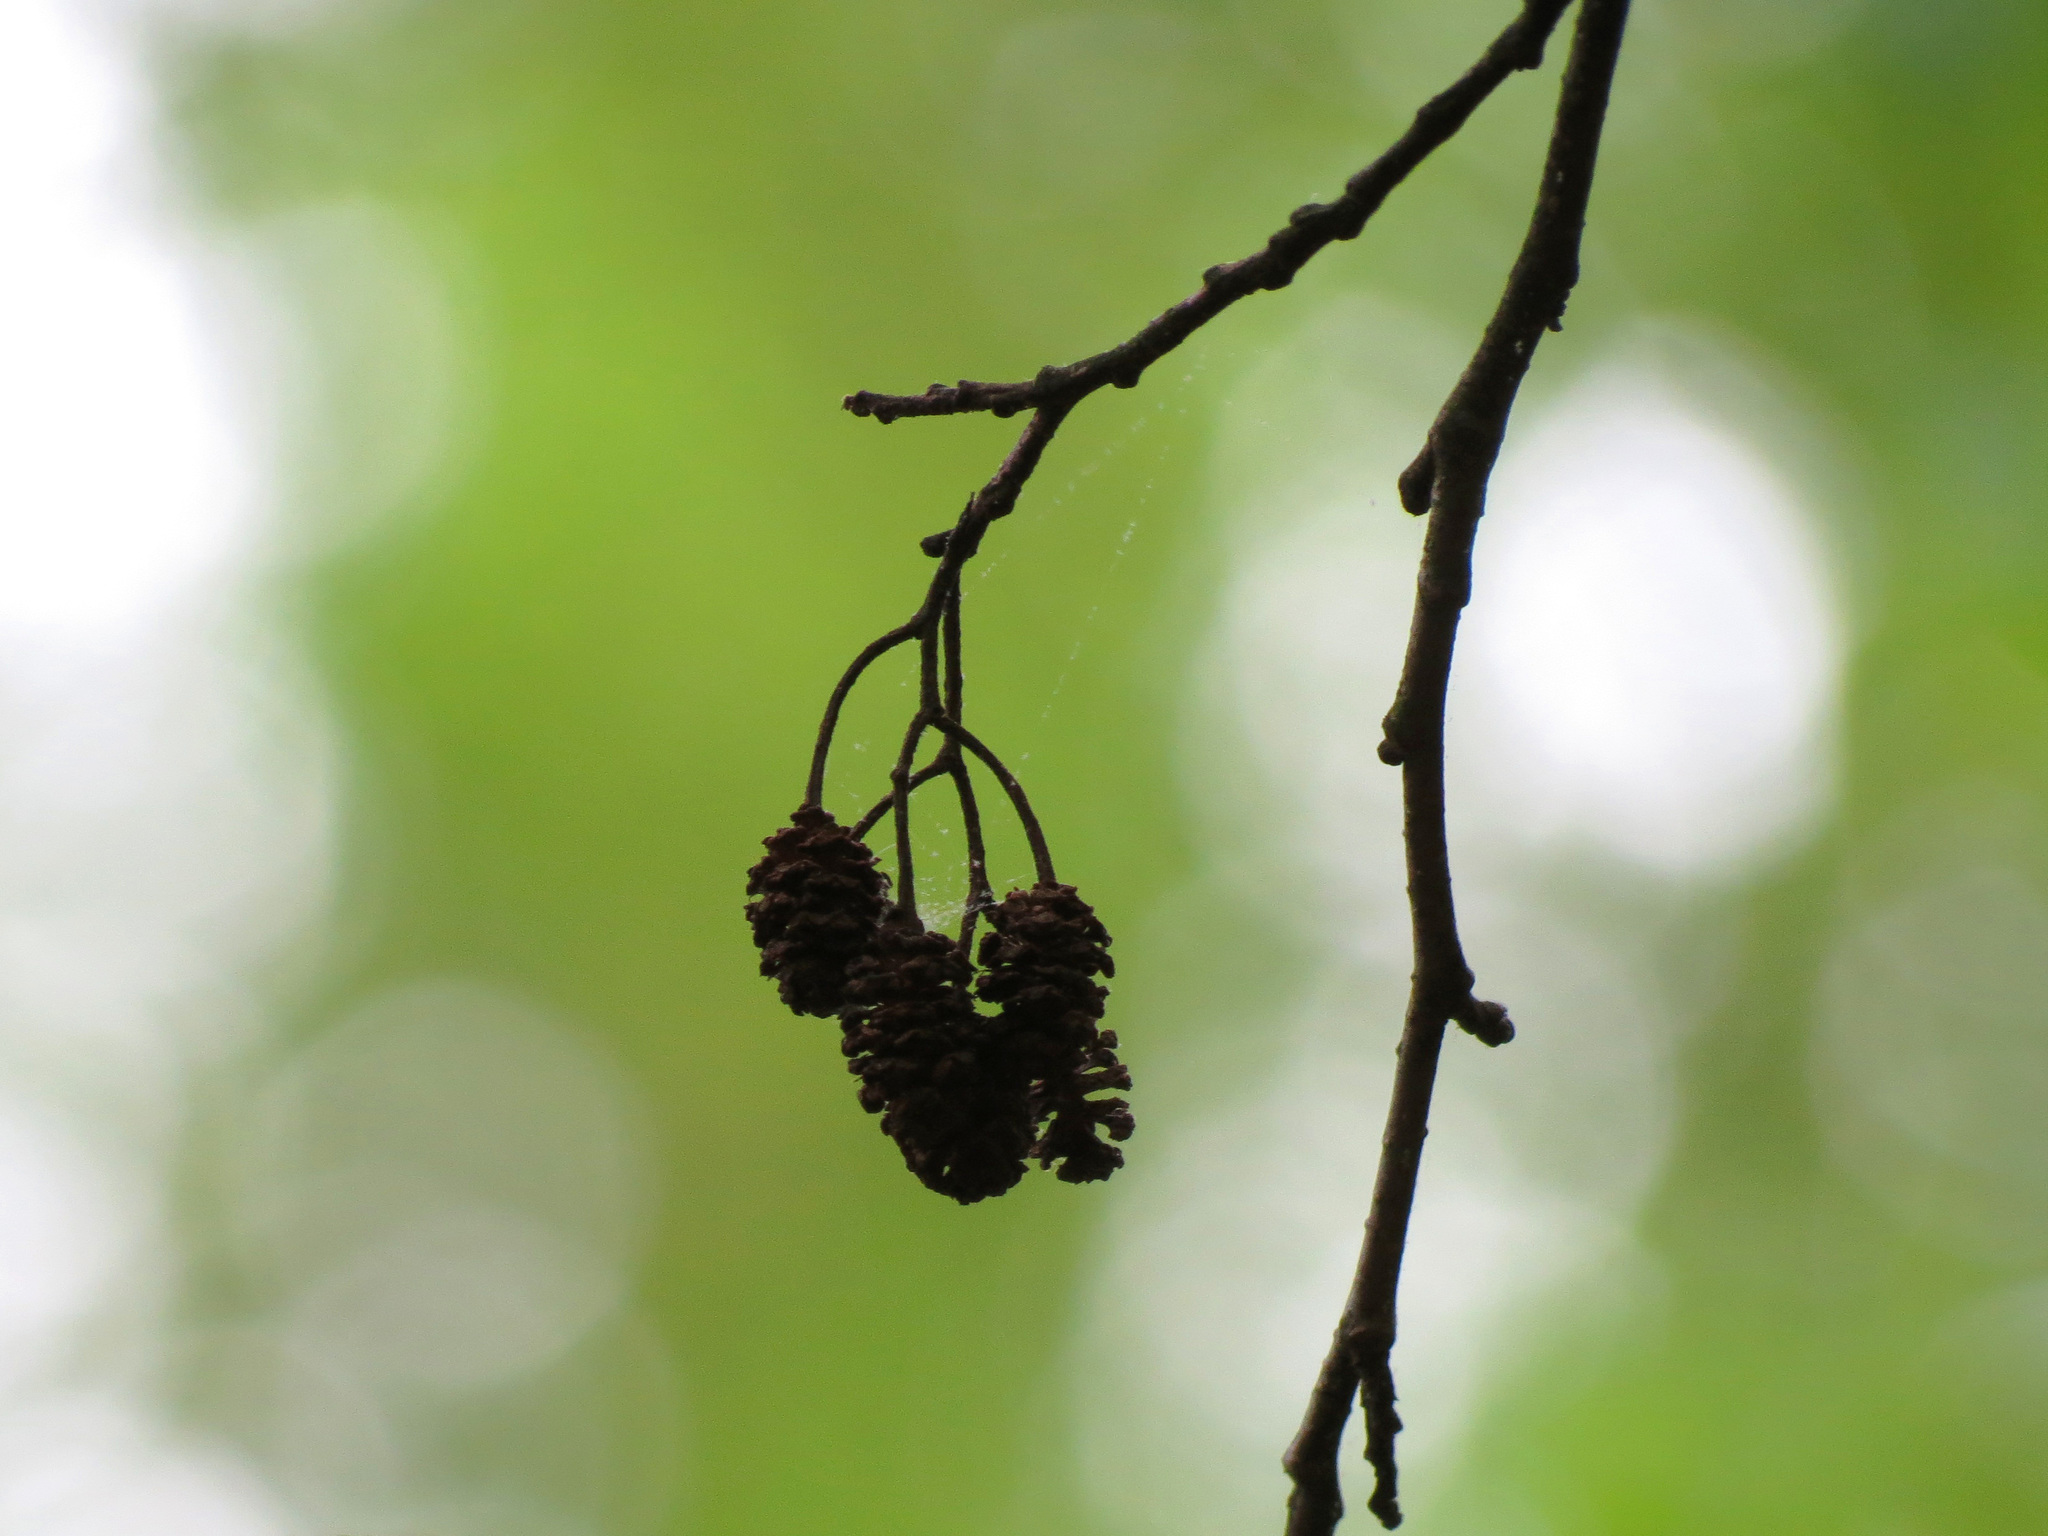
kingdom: Plantae
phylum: Tracheophyta
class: Magnoliopsida
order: Fagales
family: Betulaceae
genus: Alnus
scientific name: Alnus glutinosa
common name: Black alder
